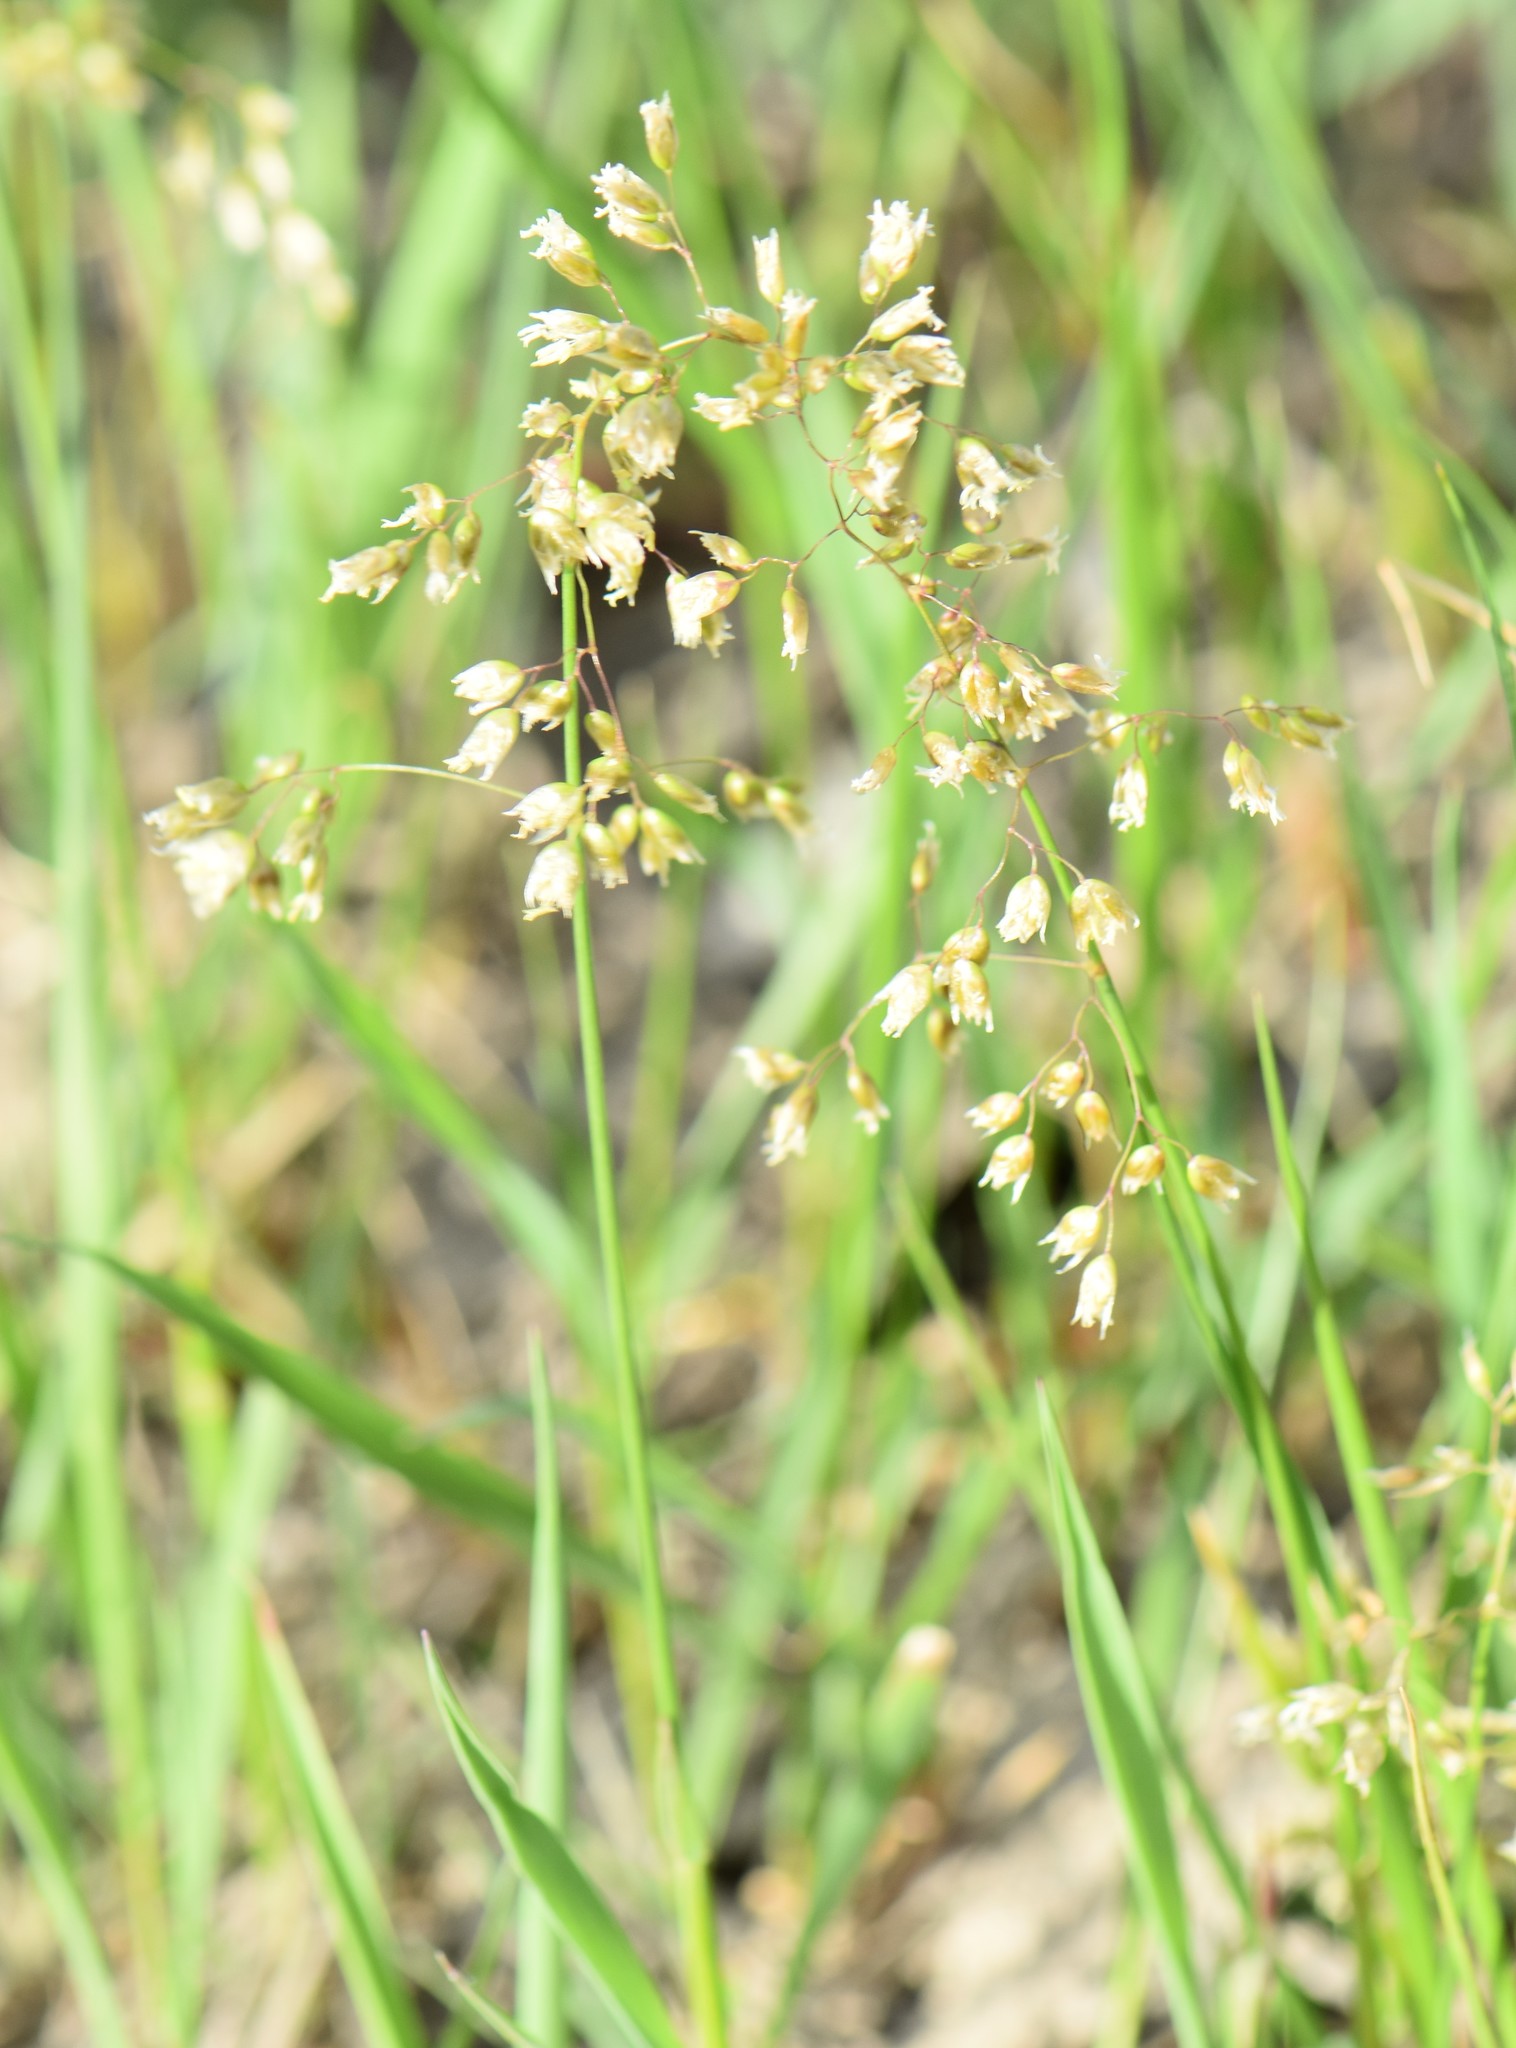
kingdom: Plantae
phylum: Tracheophyta
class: Liliopsida
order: Poales
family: Poaceae
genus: Anthoxanthum
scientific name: Anthoxanthum nitens
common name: Holy grass
